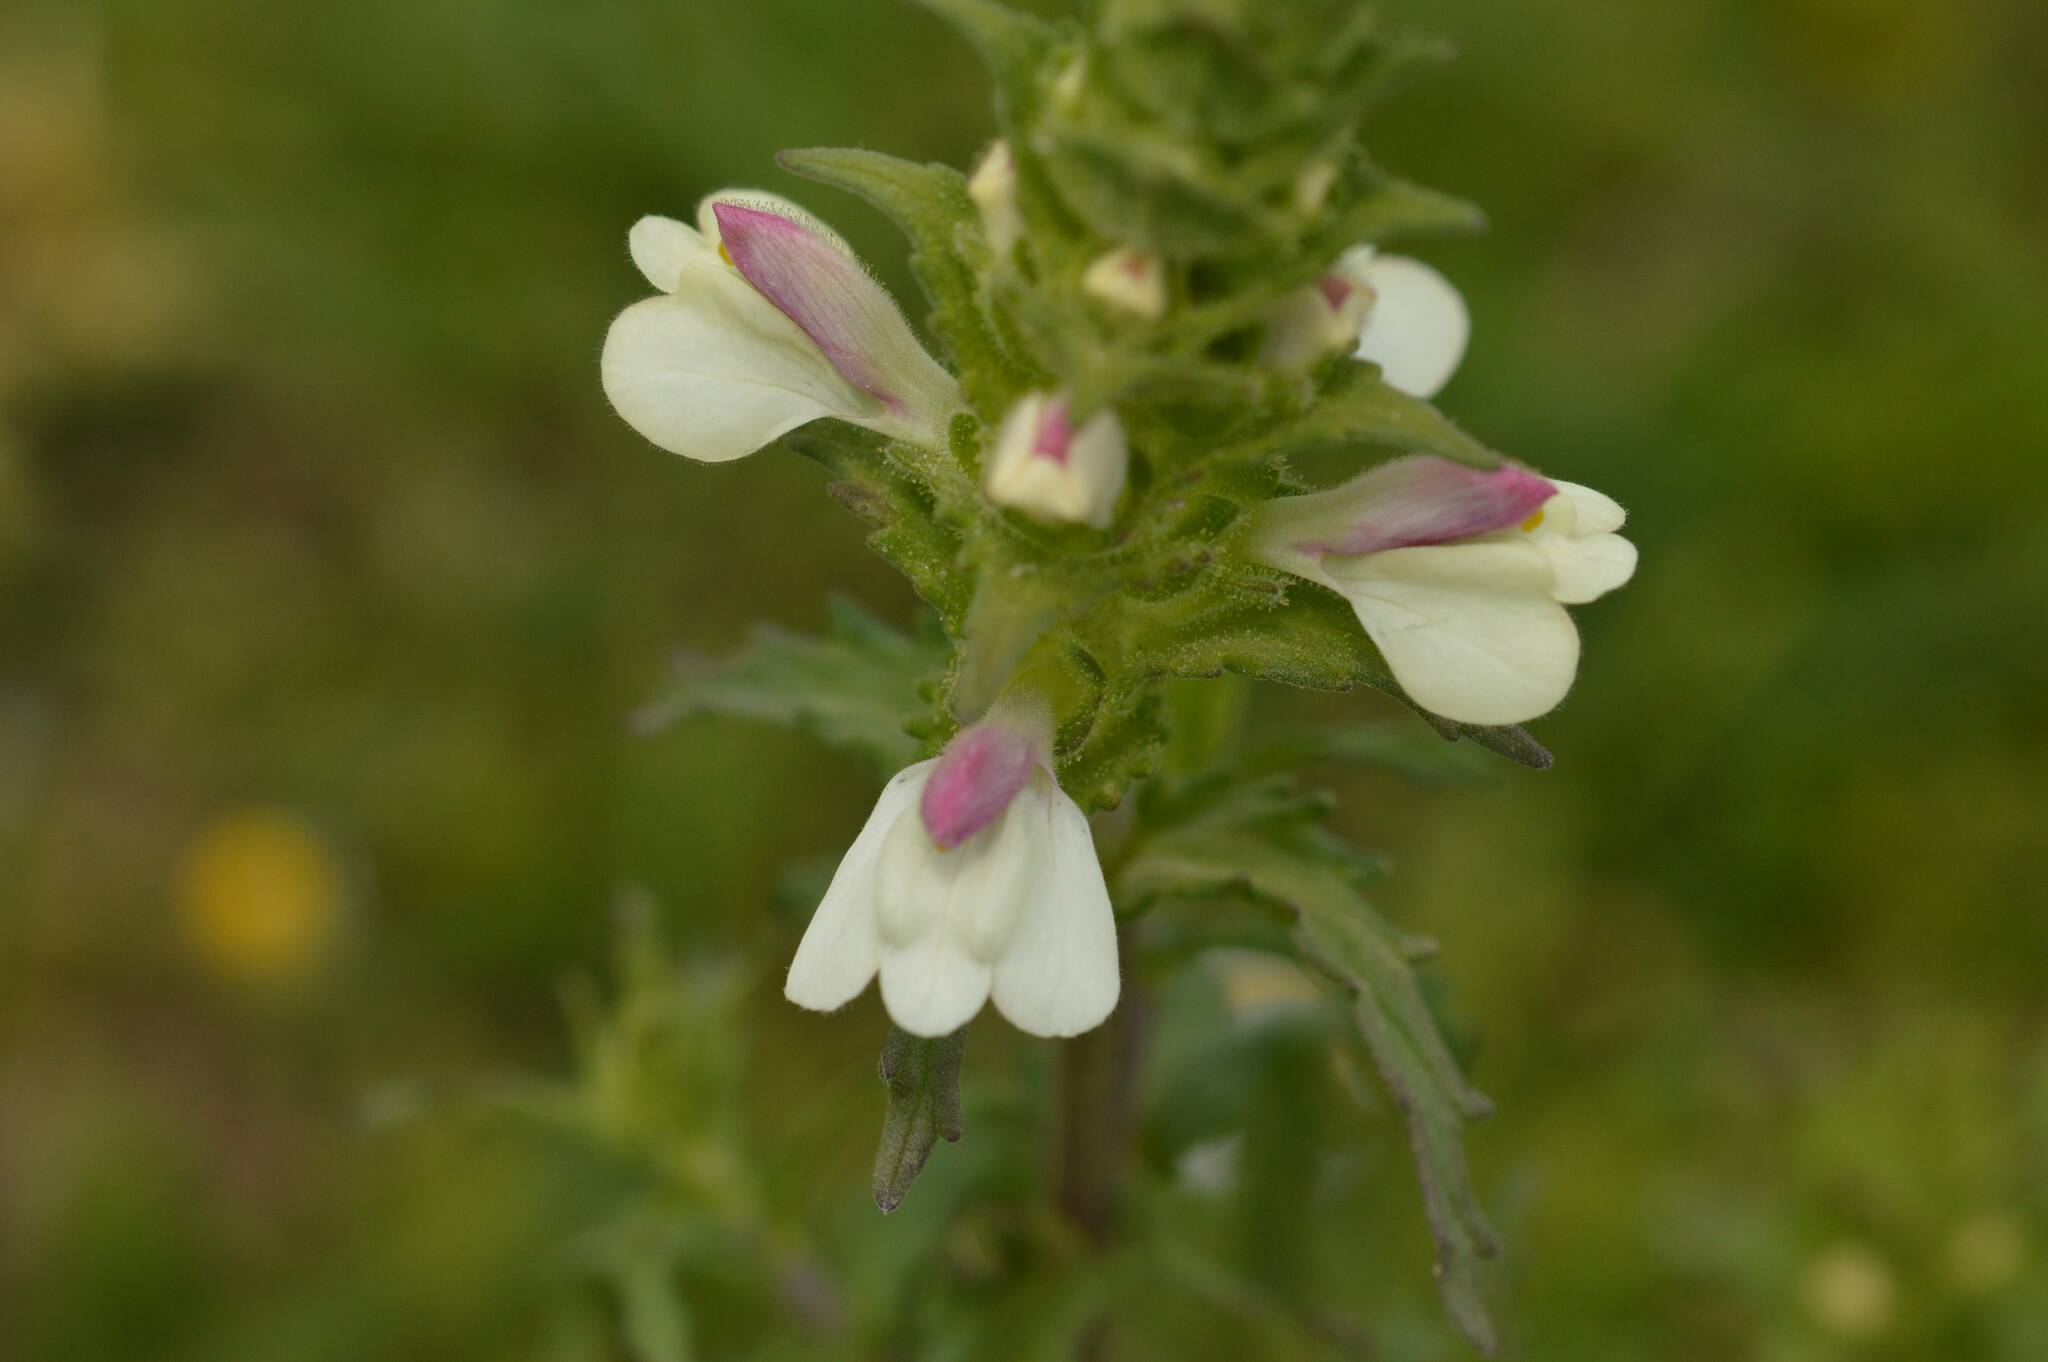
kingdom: Plantae
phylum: Tracheophyta
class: Magnoliopsida
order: Lamiales
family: Orobanchaceae
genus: Bellardia
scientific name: Bellardia trixago
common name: Mediterranean lineseed
